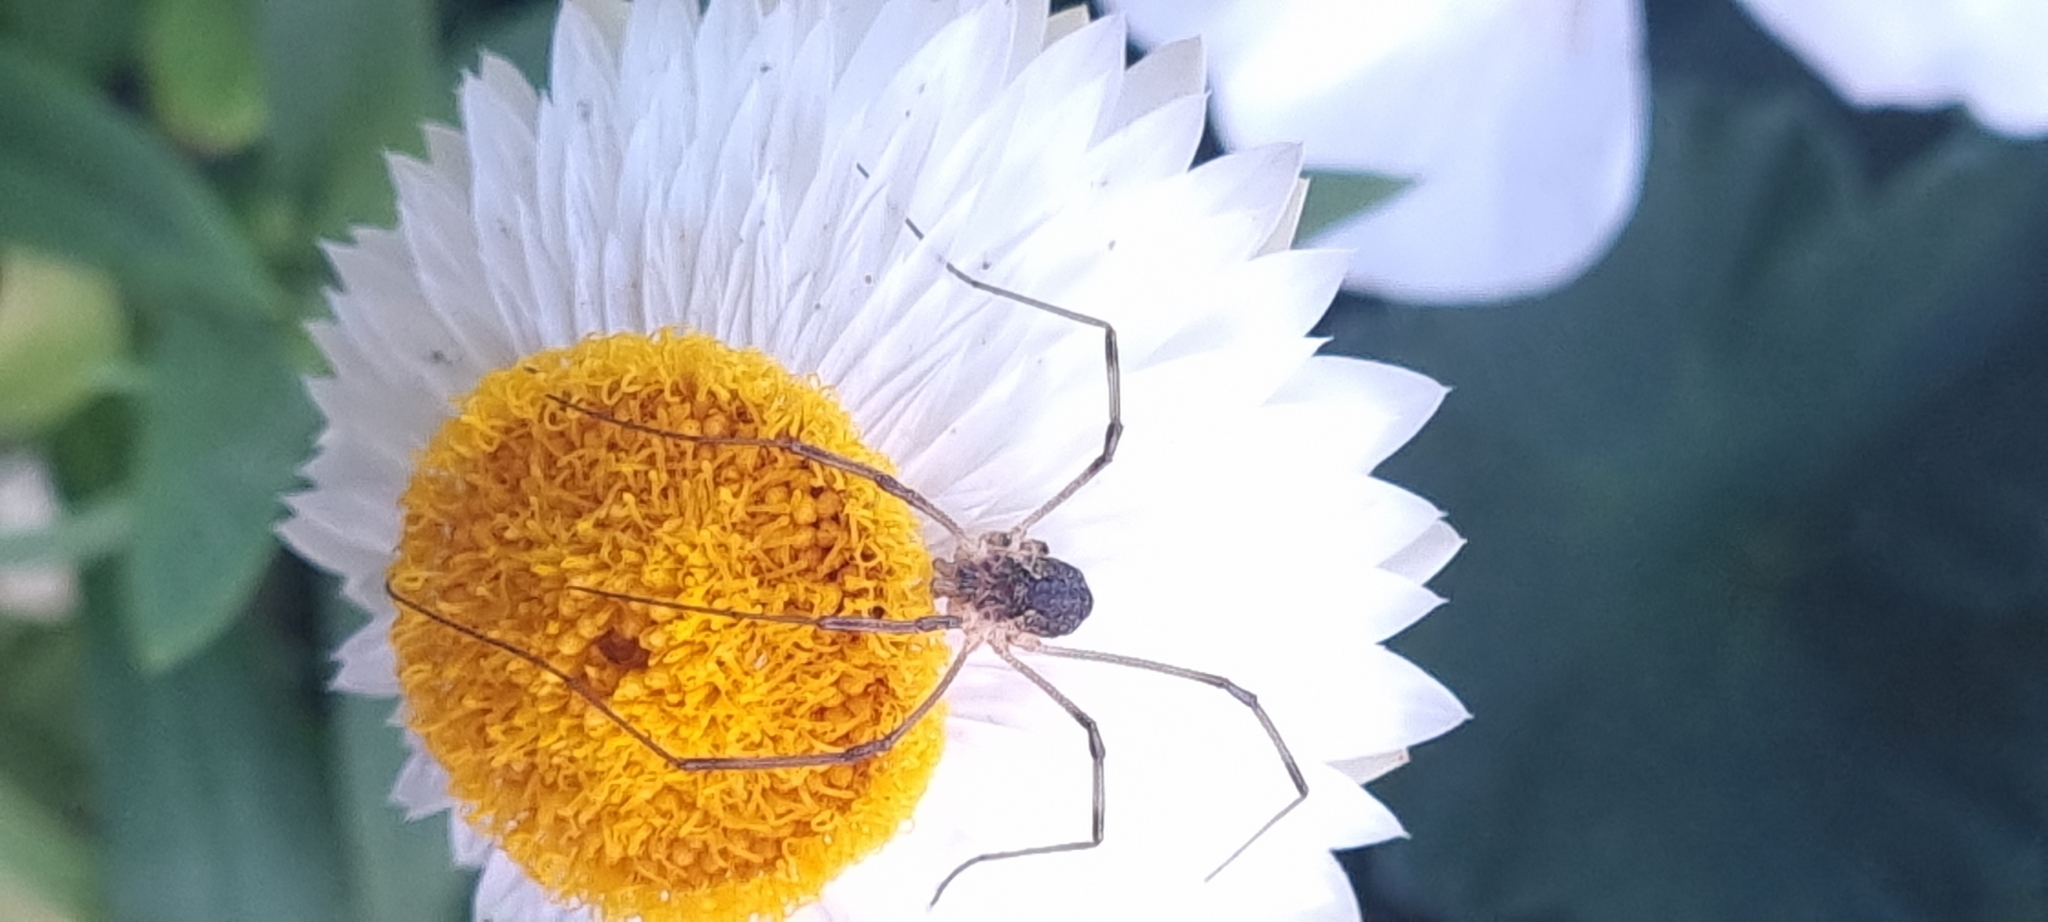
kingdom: Animalia
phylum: Arthropoda
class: Arachnida
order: Opiliones
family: Phalangiidae
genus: Mitopus
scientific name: Mitopus morio
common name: Saddleback harvestman
